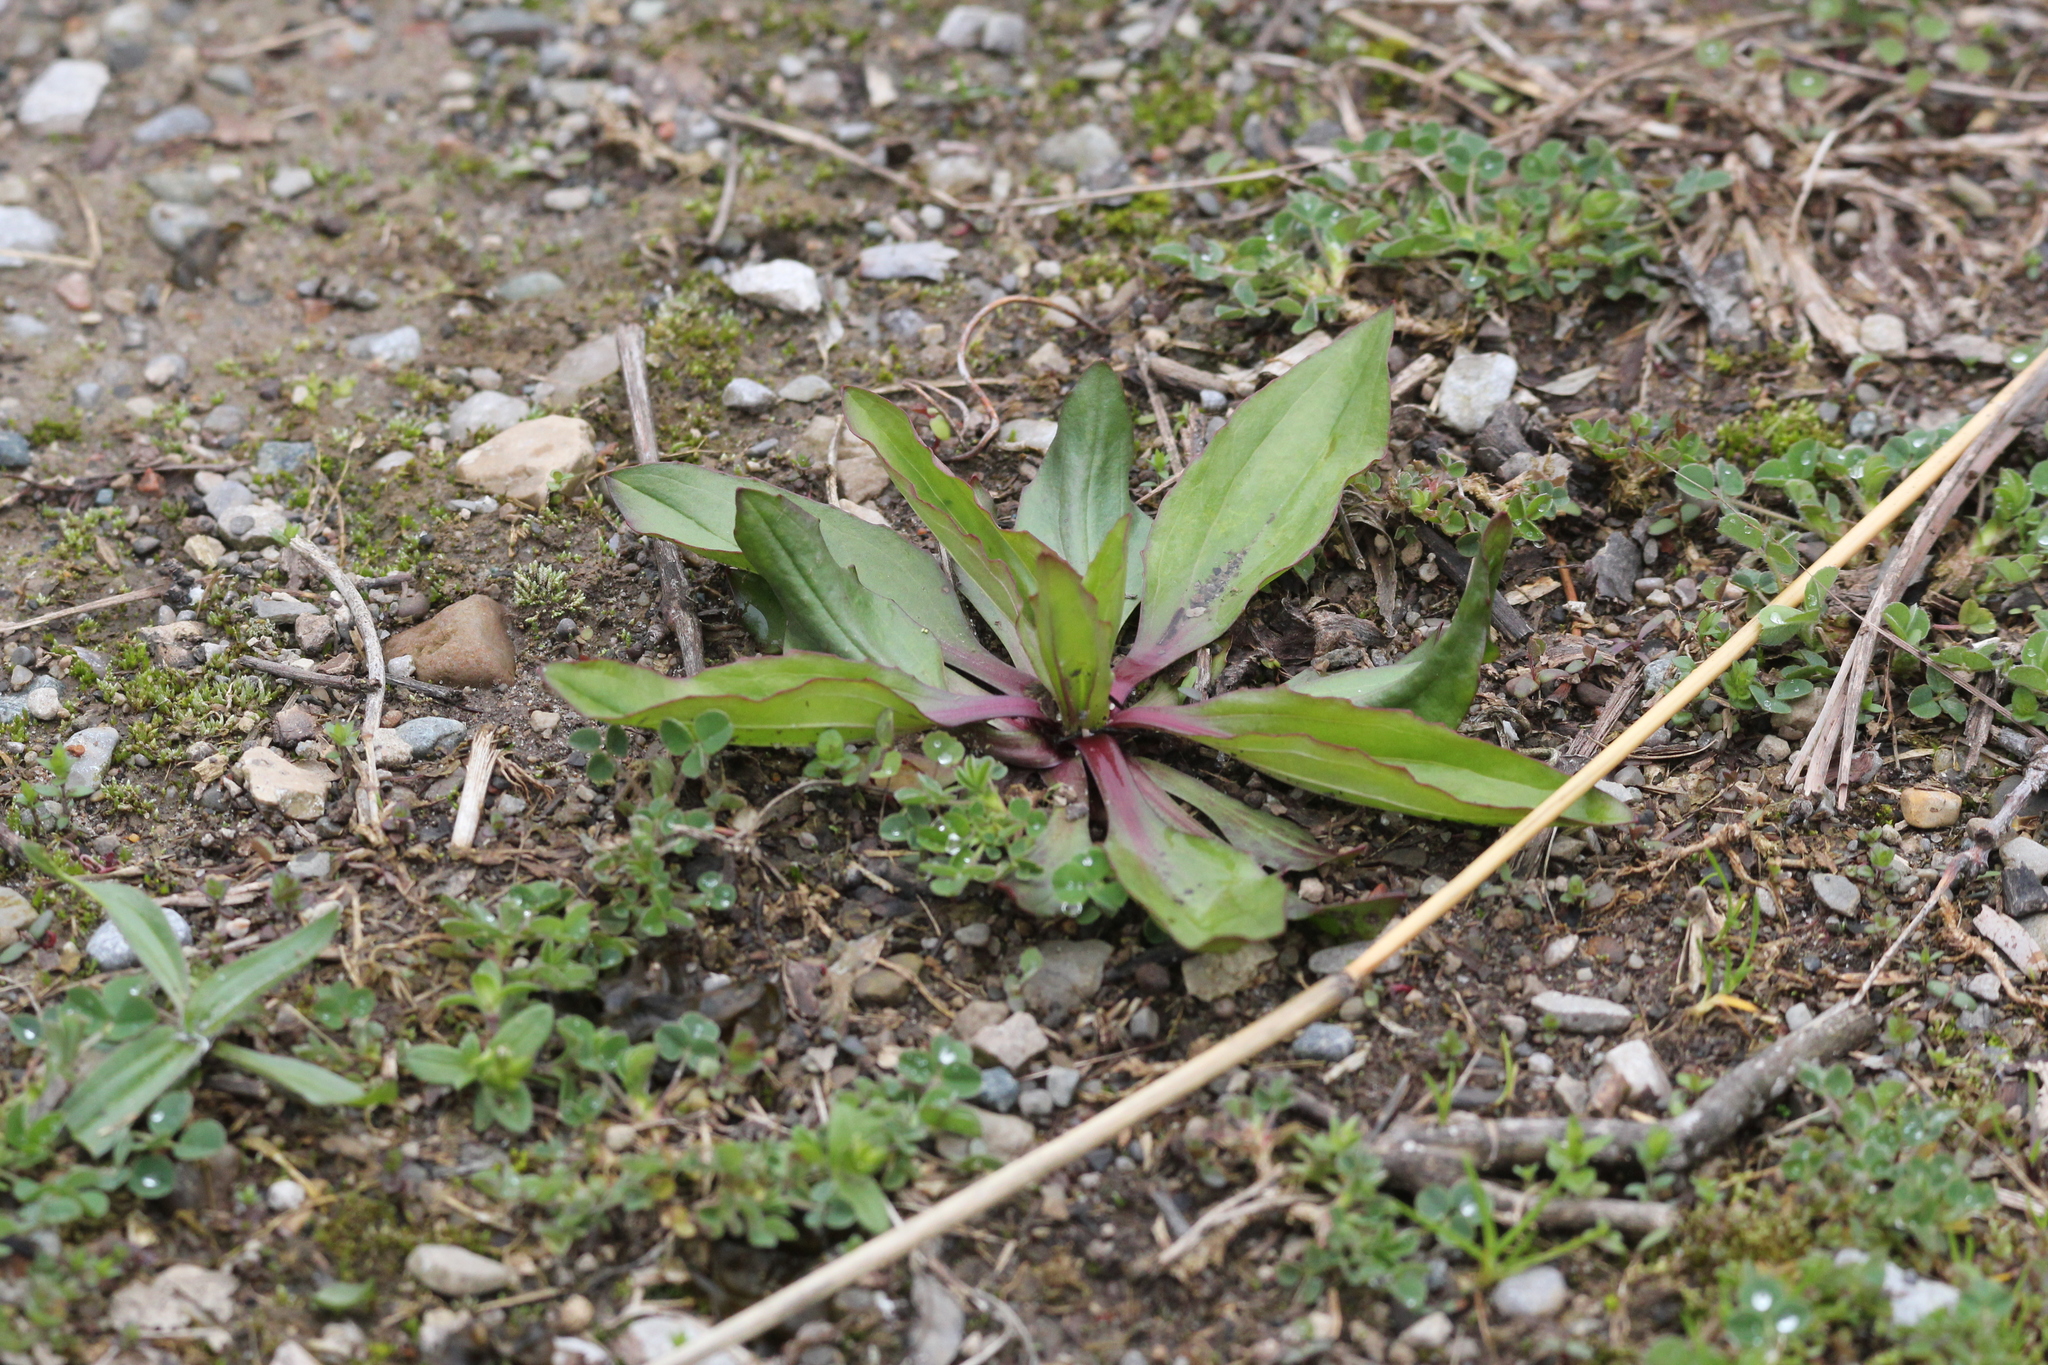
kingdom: Plantae
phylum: Tracheophyta
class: Magnoliopsida
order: Lamiales
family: Plantaginaceae
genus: Plantago
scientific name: Plantago rugelii
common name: American plantain
